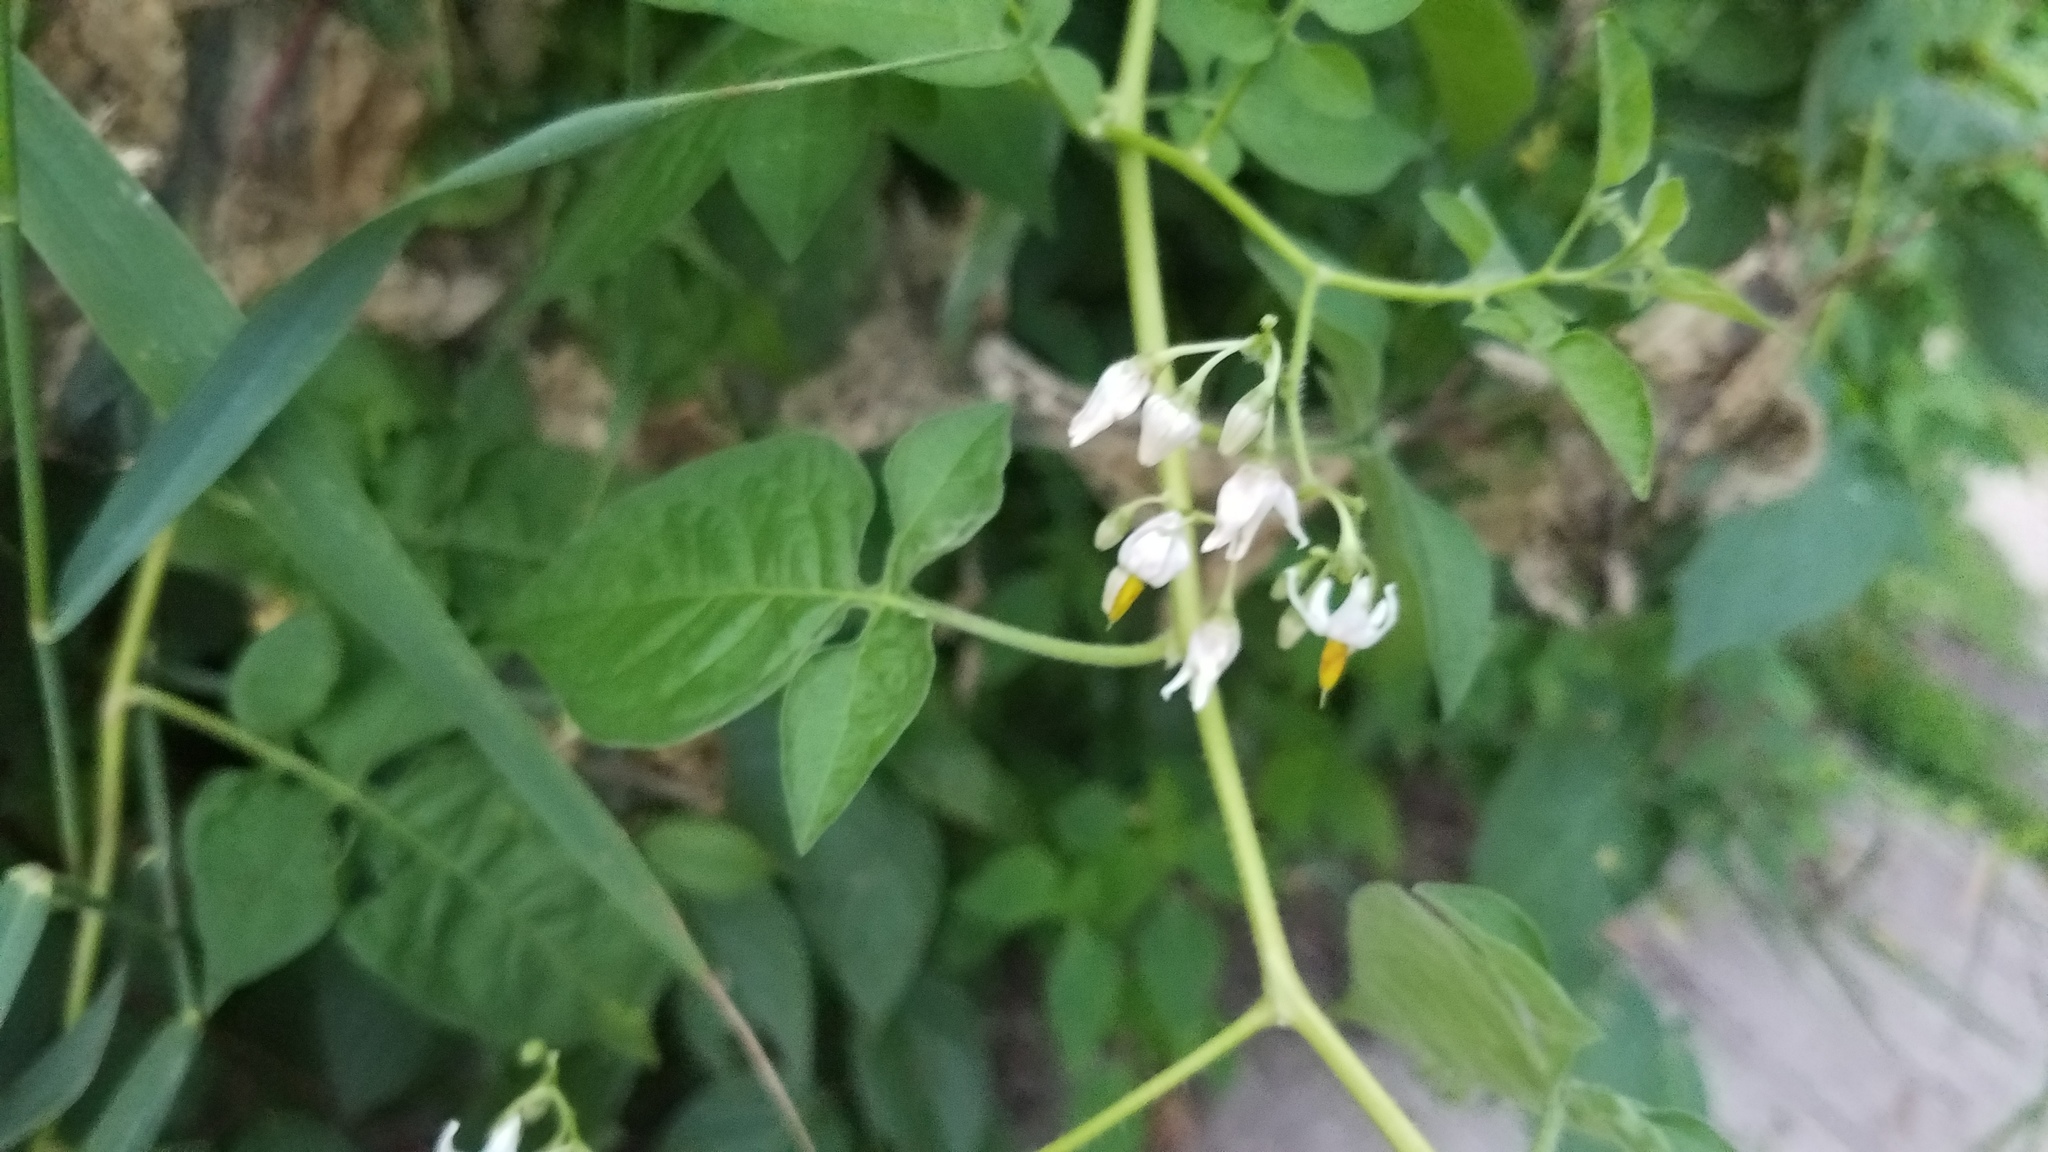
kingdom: Plantae
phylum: Tracheophyta
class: Magnoliopsida
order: Solanales
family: Solanaceae
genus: Solanum
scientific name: Solanum dulcamara
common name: Climbing nightshade
